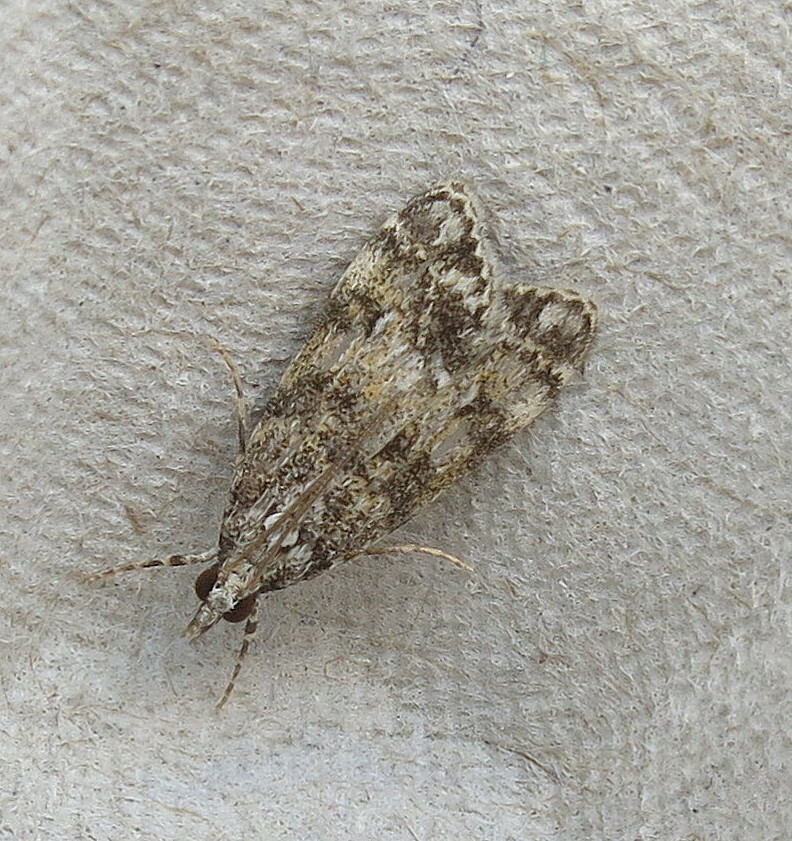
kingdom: Animalia
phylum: Arthropoda
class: Insecta
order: Lepidoptera
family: Crambidae
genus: Eudonia
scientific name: Eudonia mercurella
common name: Small grey
